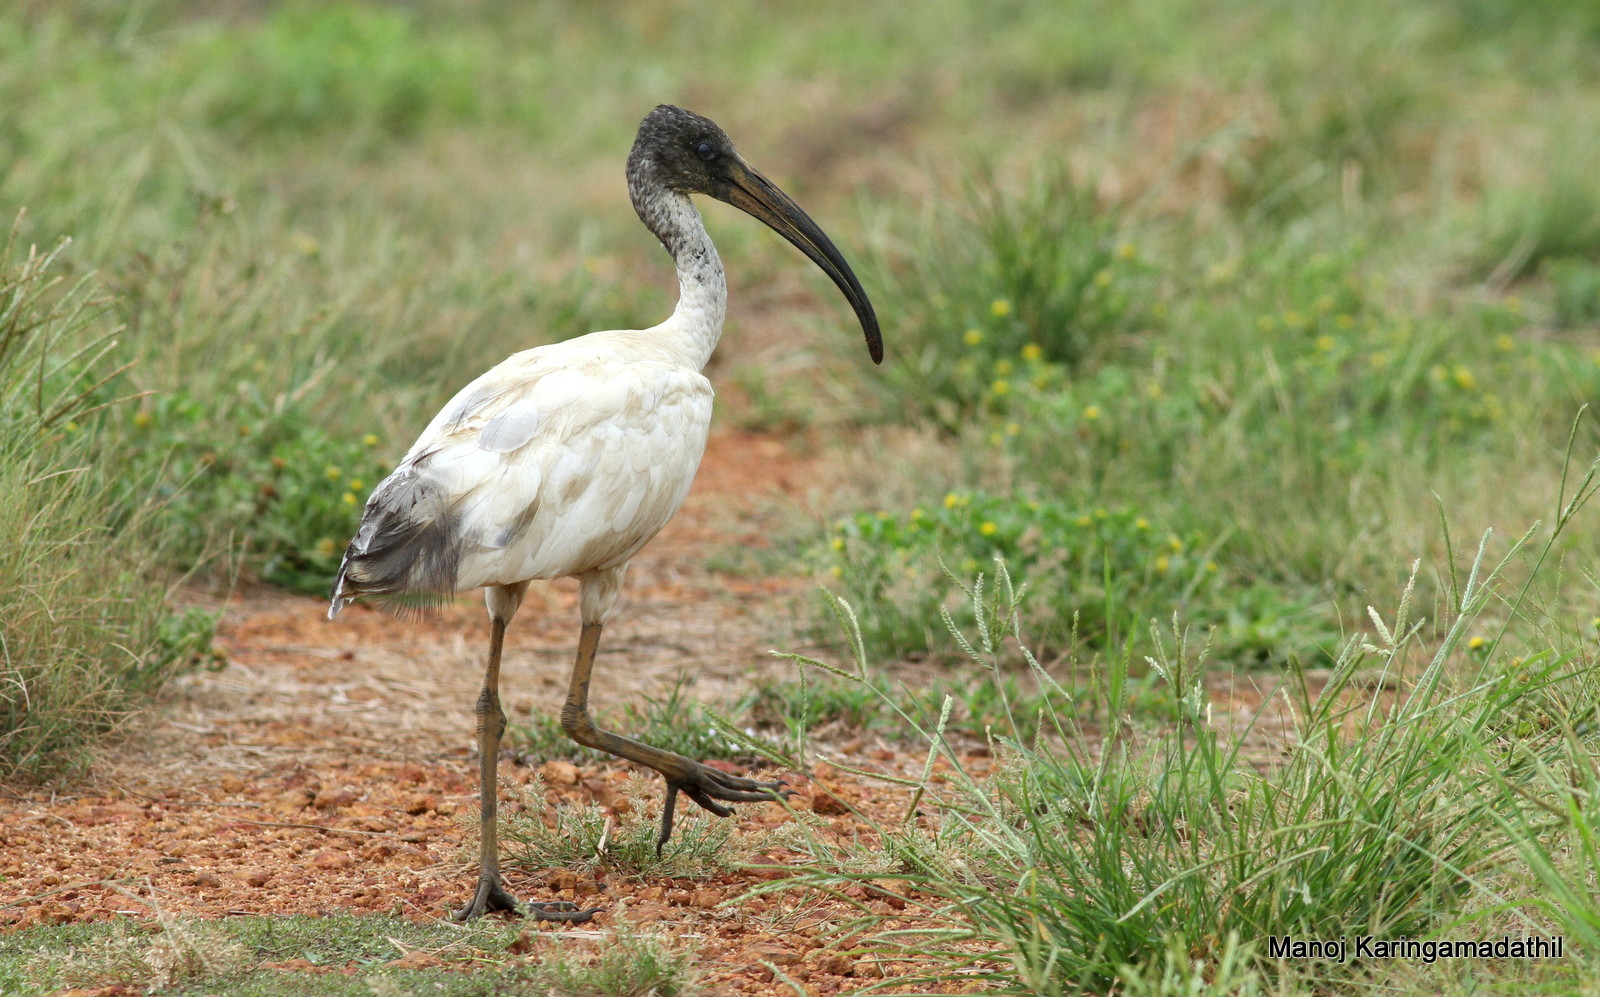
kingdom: Animalia
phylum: Chordata
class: Aves
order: Pelecaniformes
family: Threskiornithidae
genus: Threskiornis
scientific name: Threskiornis melanocephalus
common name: Black-headed ibis
